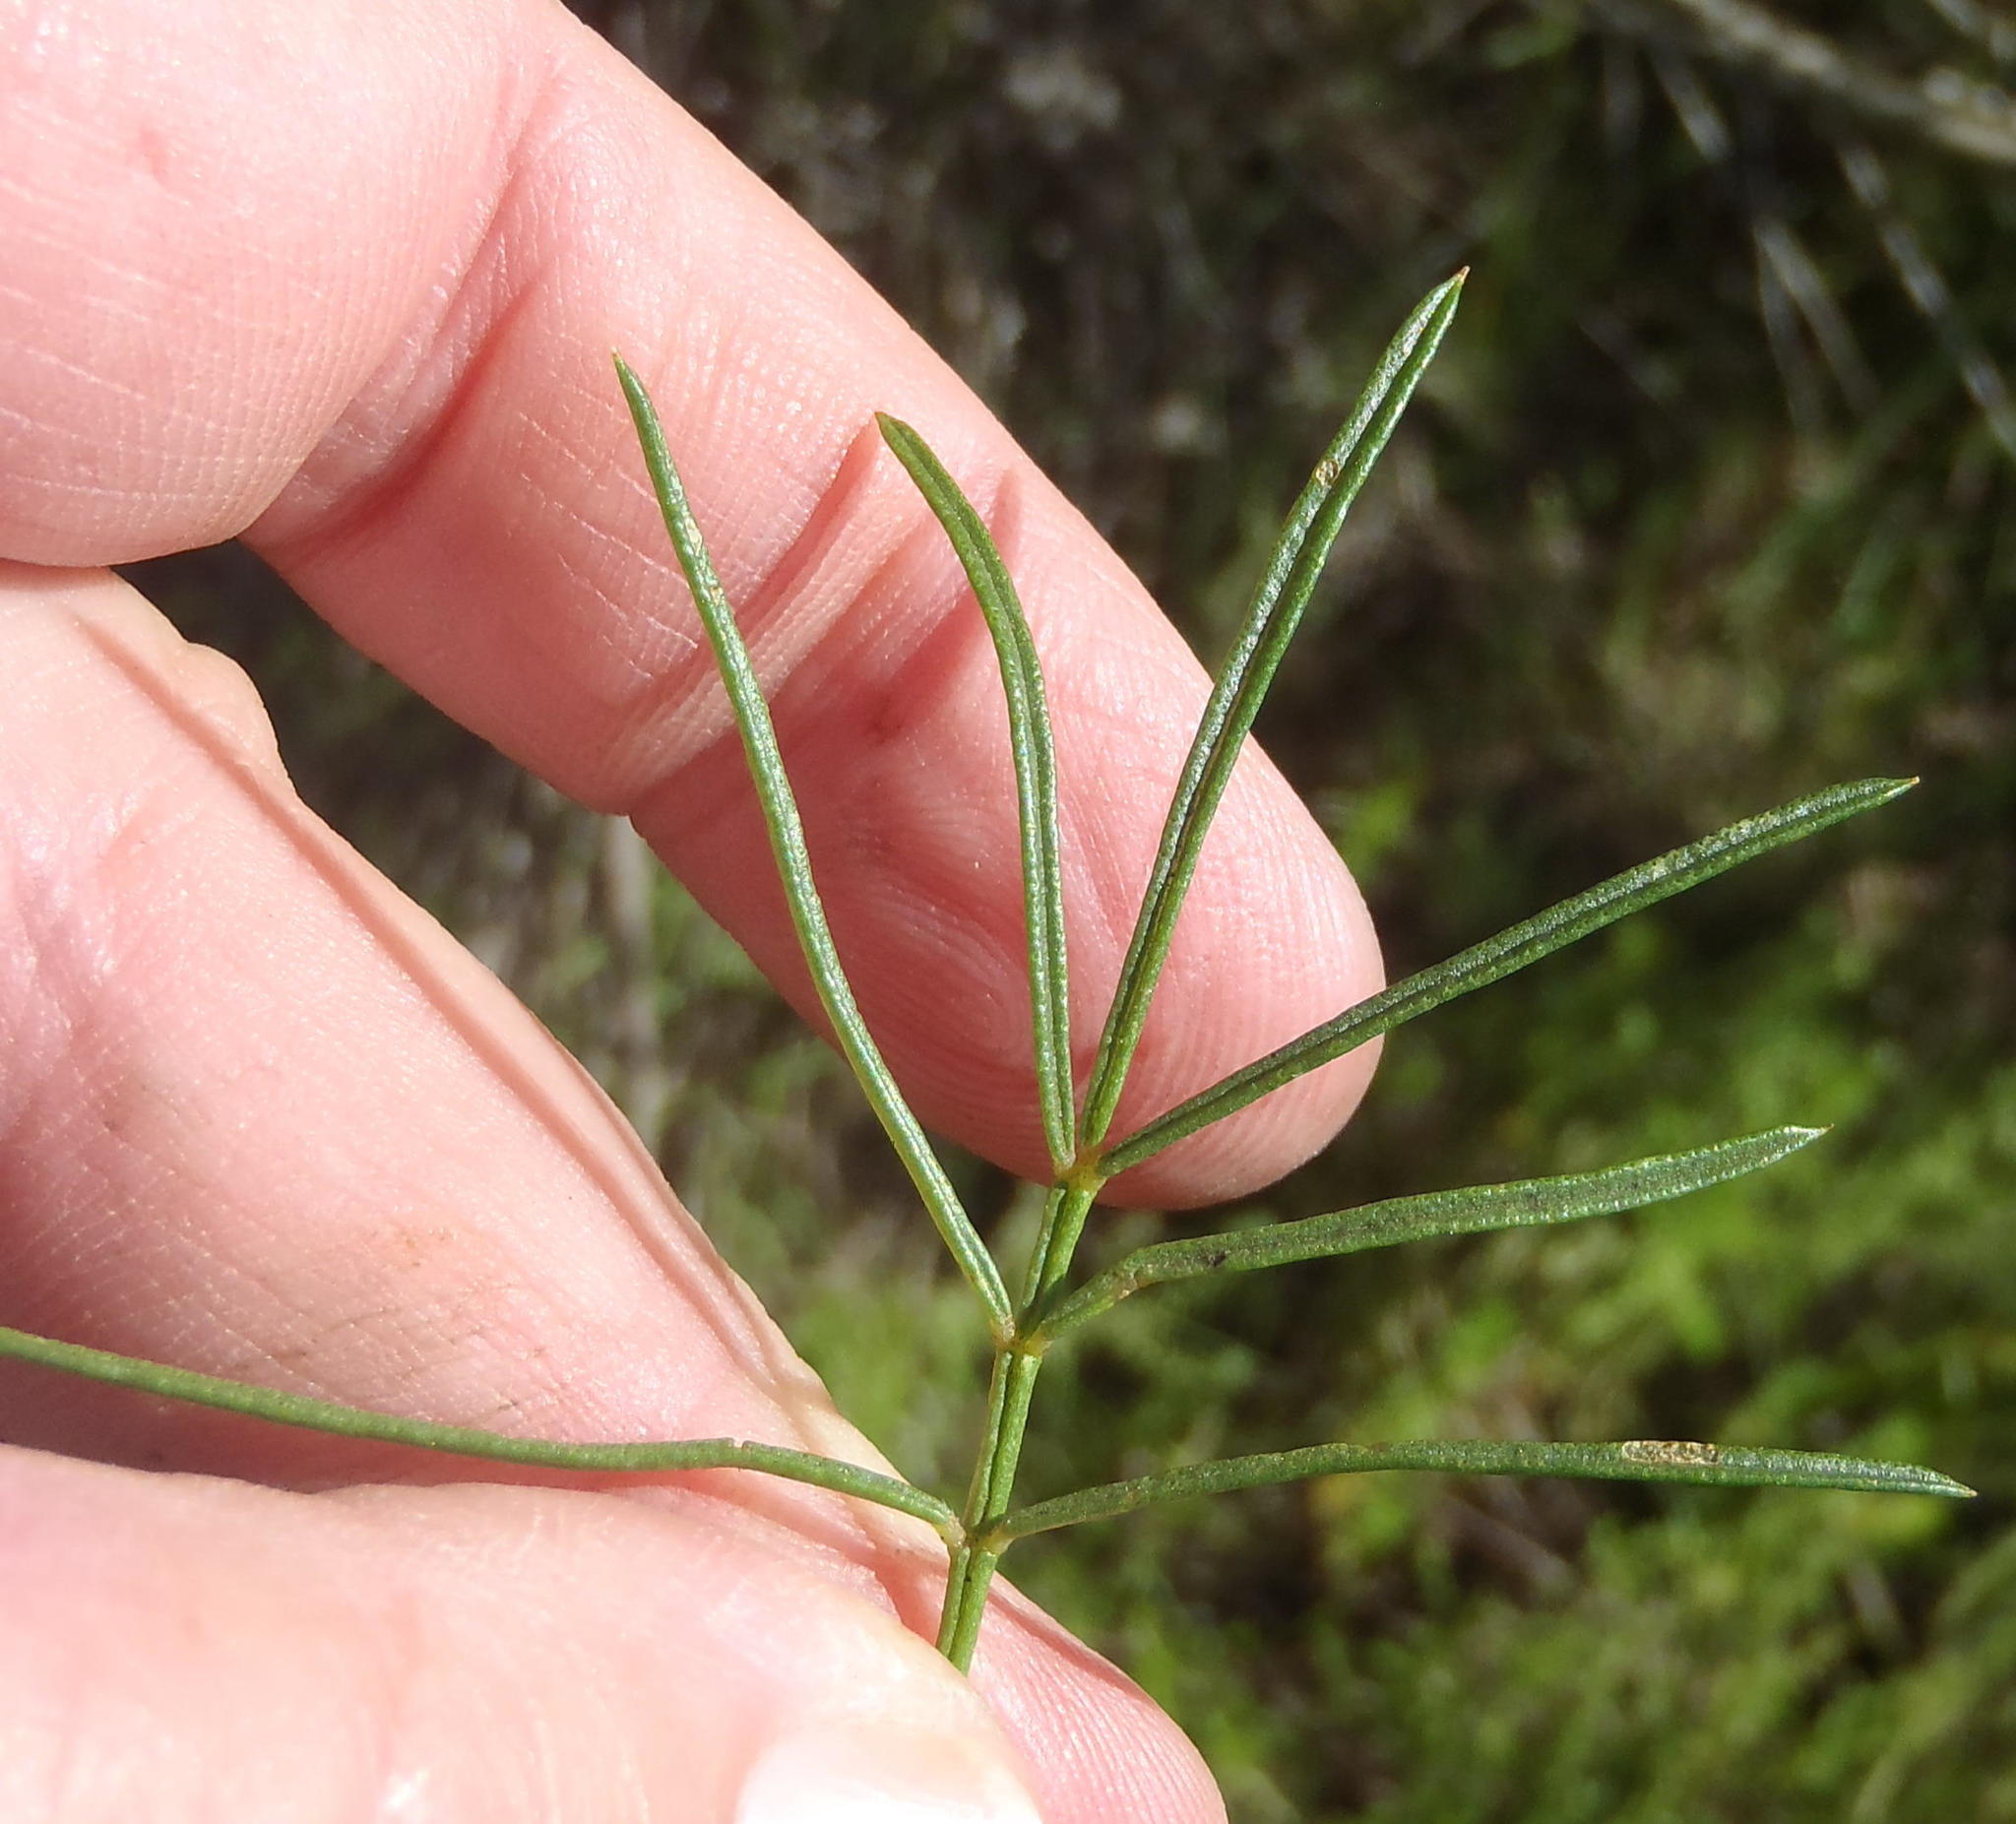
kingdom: Plantae
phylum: Tracheophyta
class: Magnoliopsida
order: Fabales
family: Fabaceae
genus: Psoralea
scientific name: Psoralea affinis
